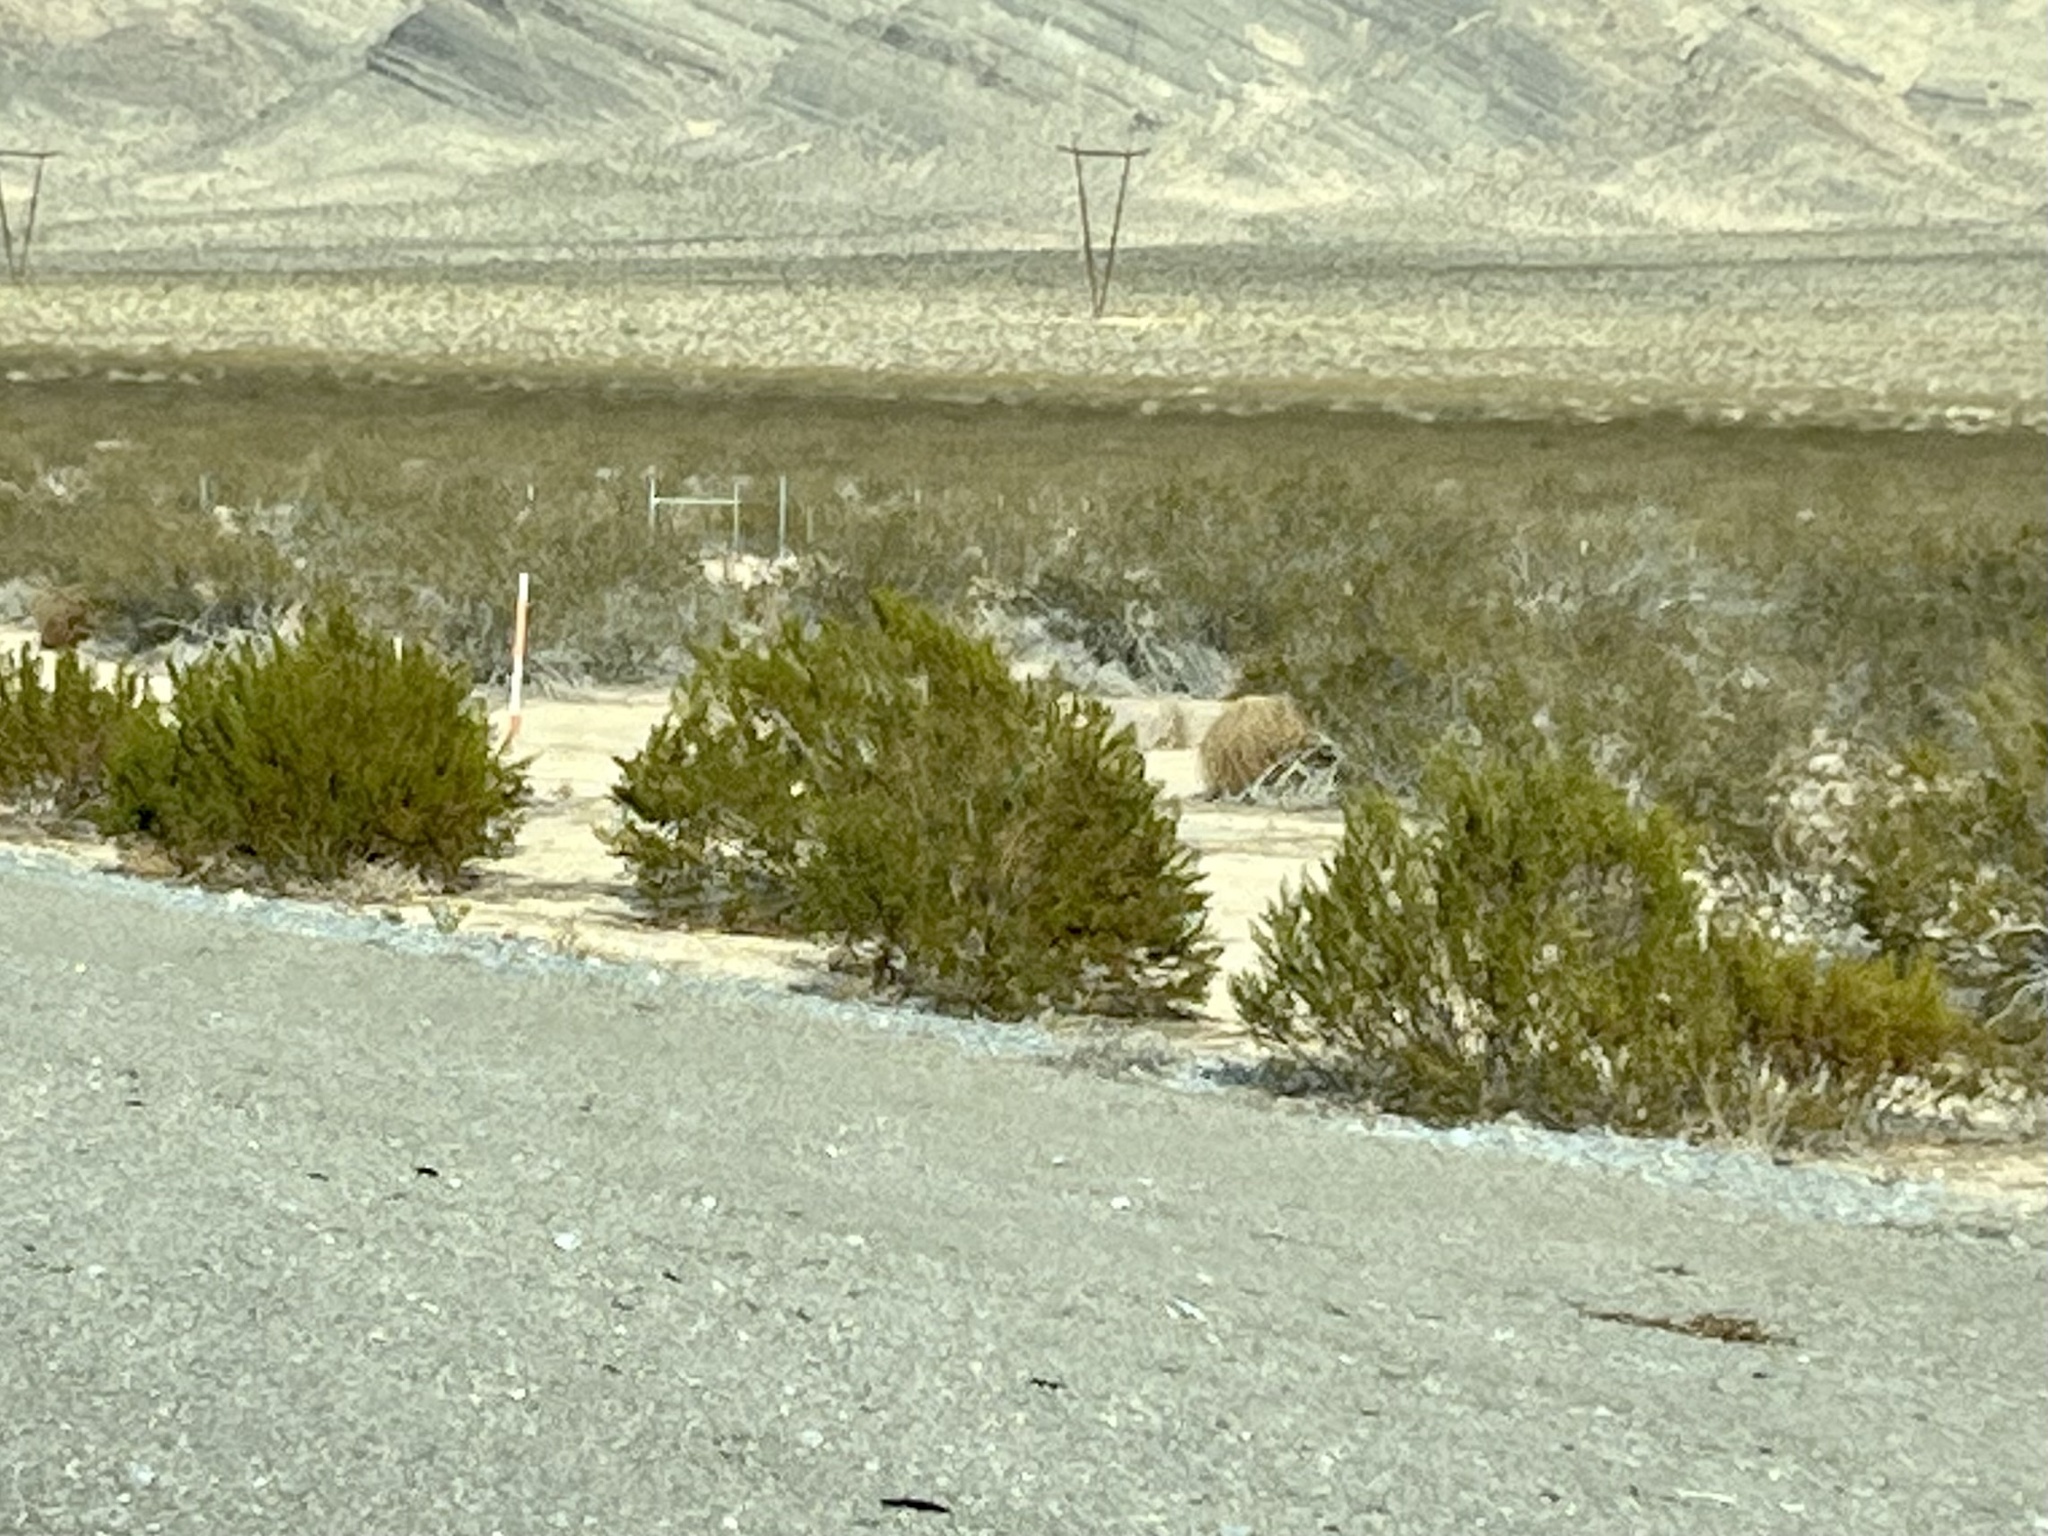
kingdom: Plantae
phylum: Tracheophyta
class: Magnoliopsida
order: Zygophyllales
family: Zygophyllaceae
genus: Larrea
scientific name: Larrea tridentata
